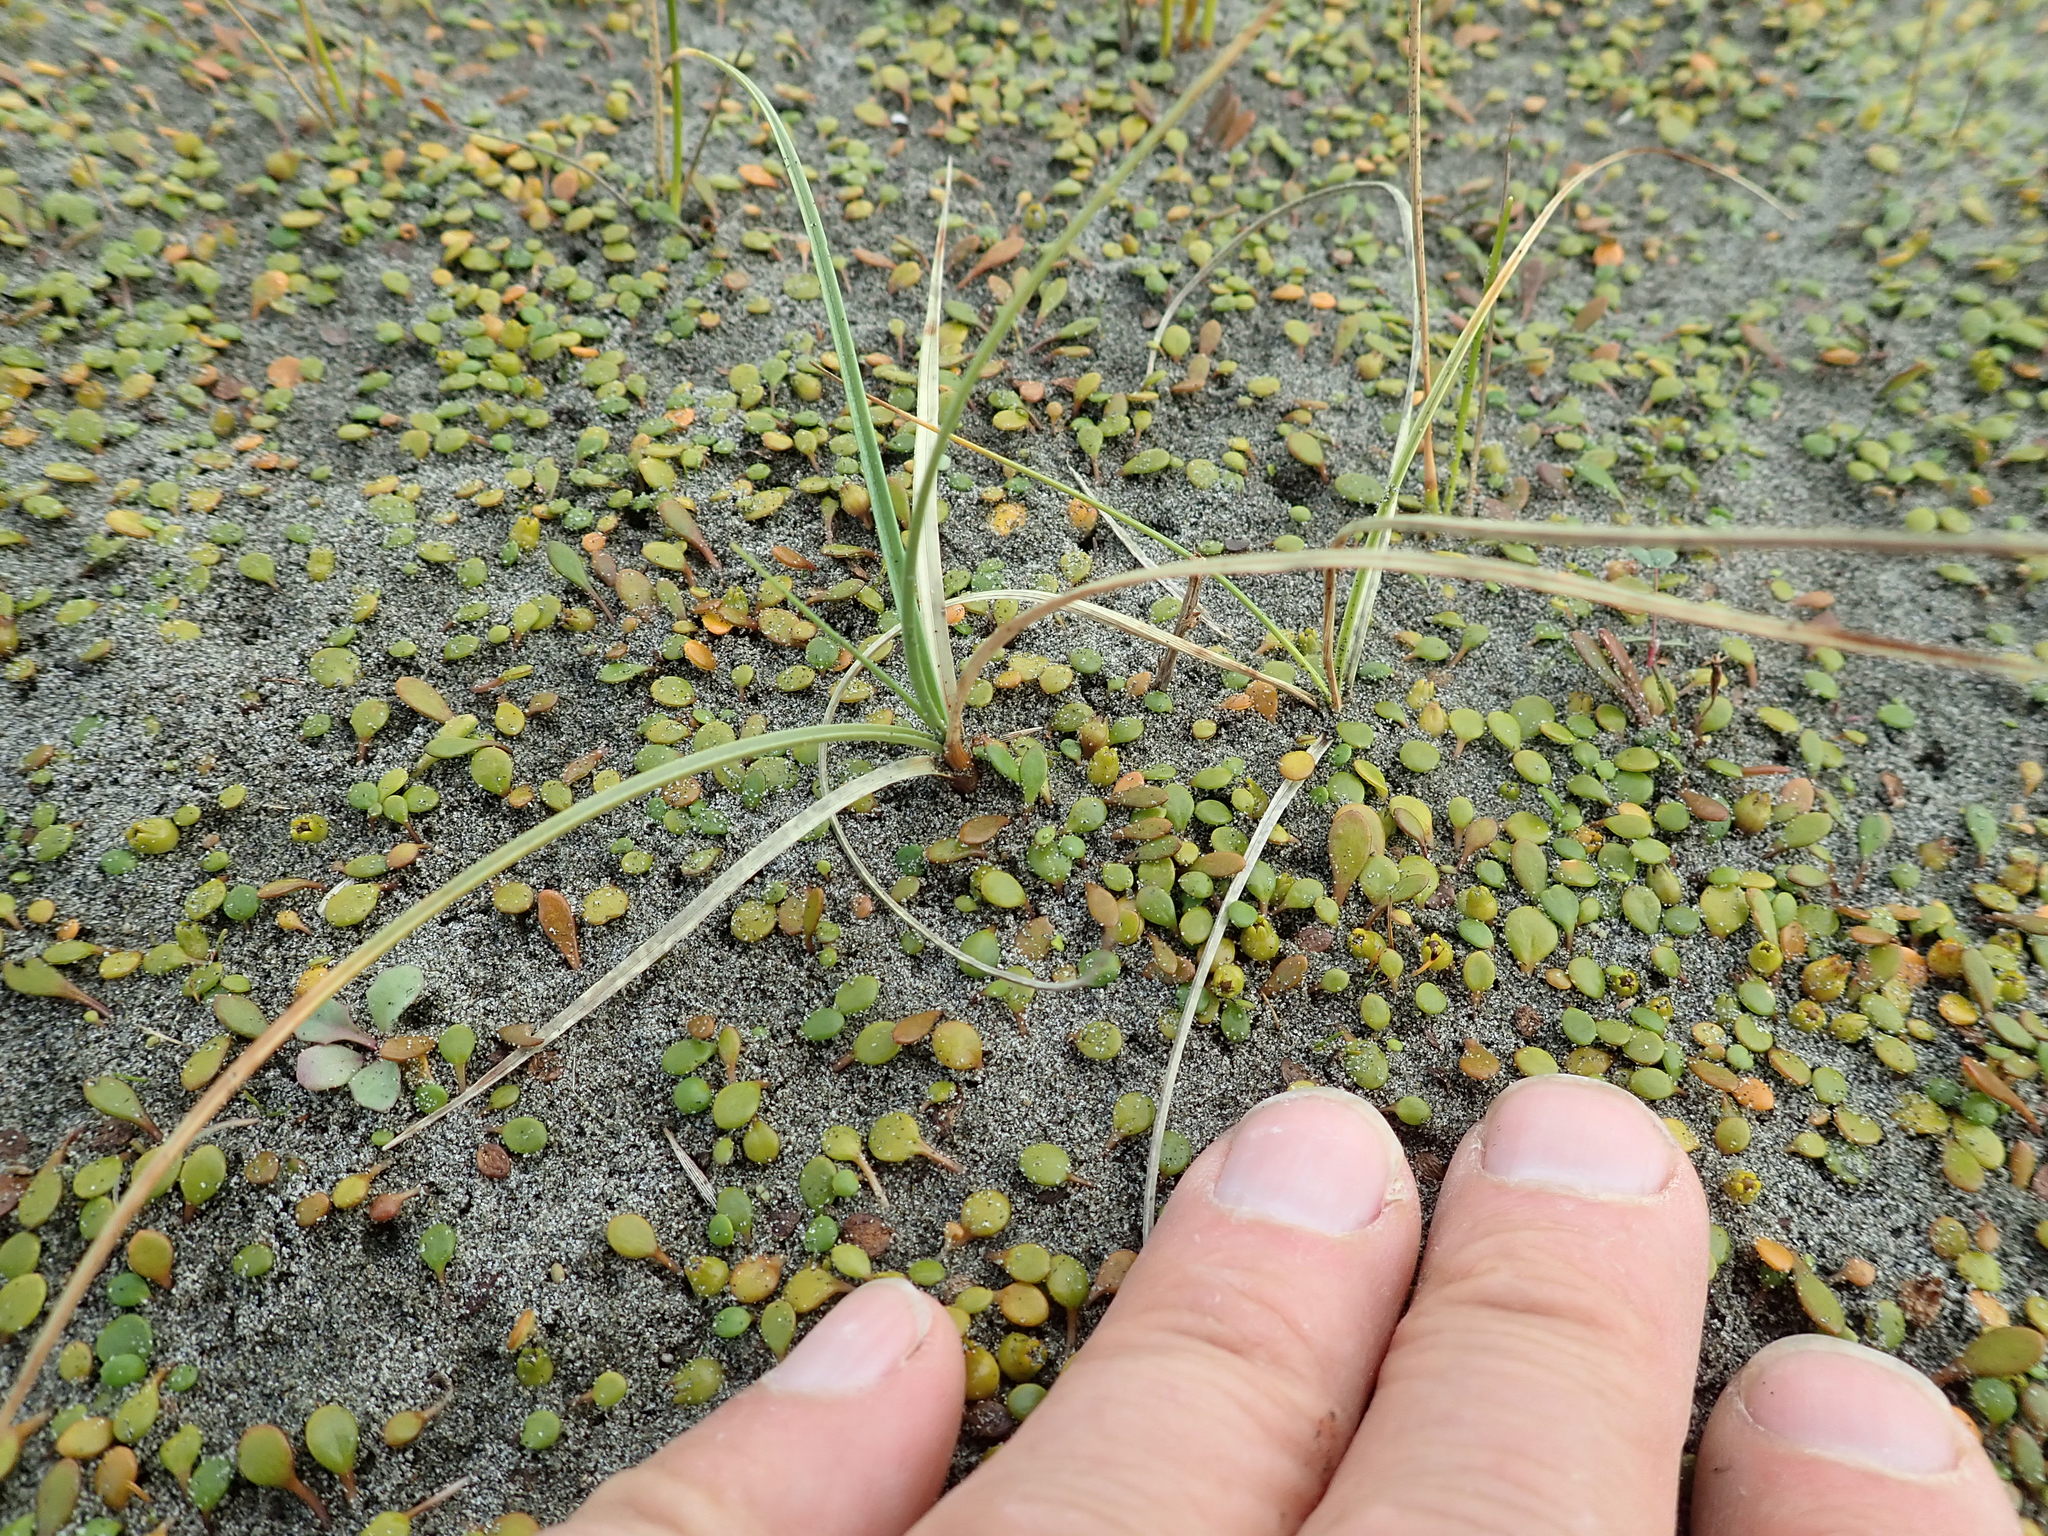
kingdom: Plantae
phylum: Tracheophyta
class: Liliopsida
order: Poales
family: Cyperaceae
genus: Carex
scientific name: Carex pumila
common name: Dwarf sedge
